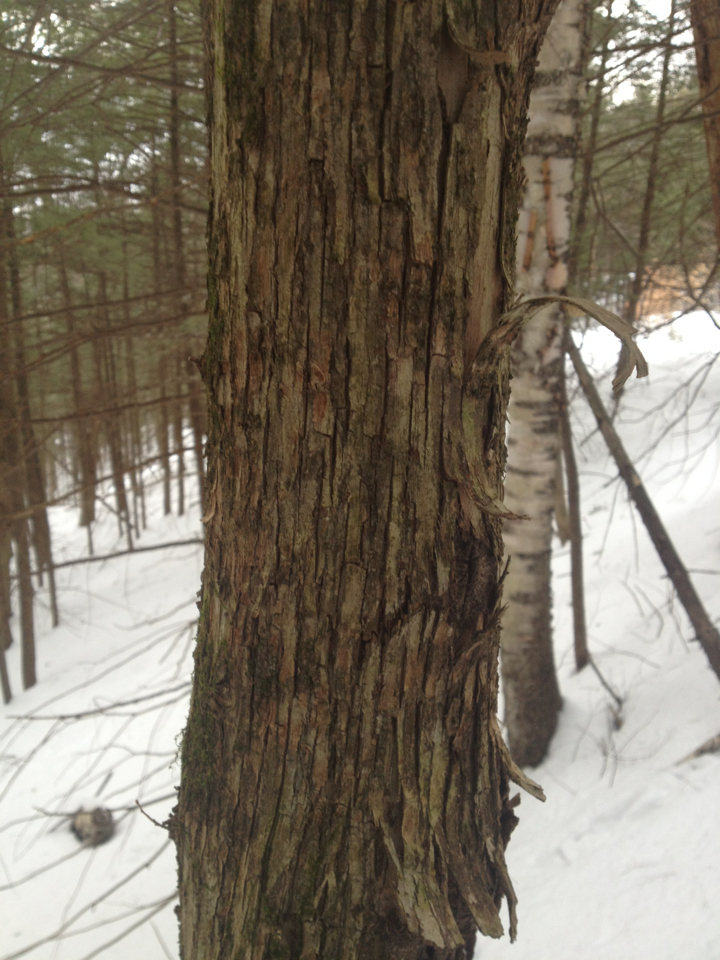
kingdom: Plantae
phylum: Tracheophyta
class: Magnoliopsida
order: Fagales
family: Betulaceae
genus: Ostrya
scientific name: Ostrya virginiana
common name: Ironwood
